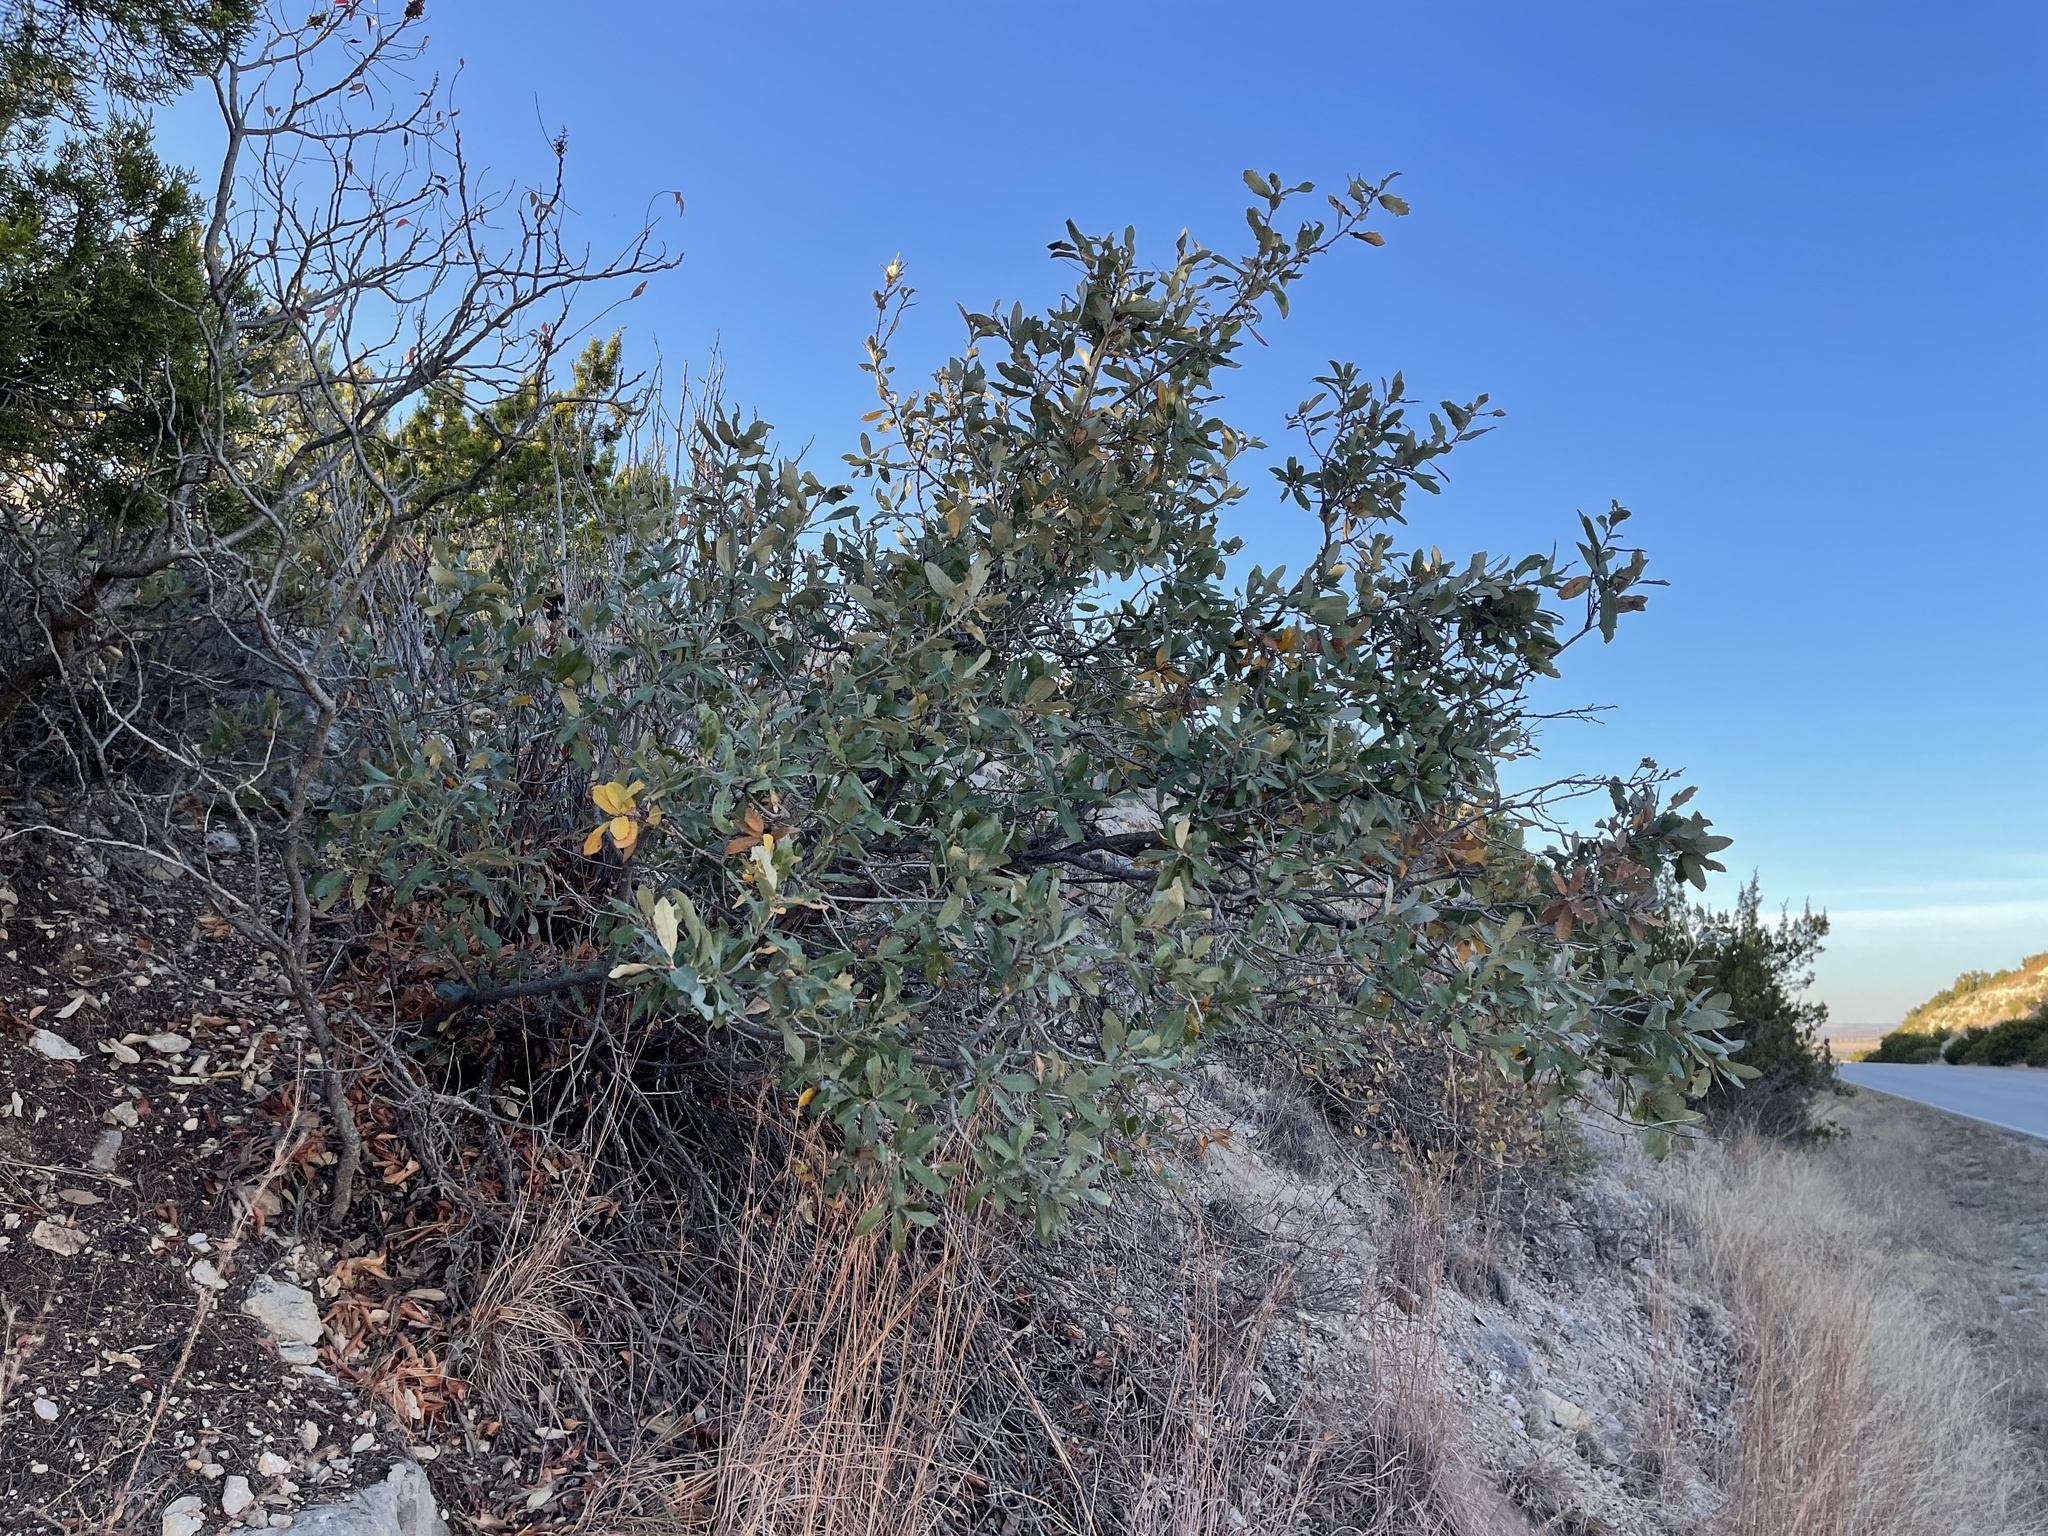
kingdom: Plantae
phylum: Tracheophyta
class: Magnoliopsida
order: Fagales
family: Fagaceae
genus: Quercus
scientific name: Quercus mohriana
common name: Mohr oak
